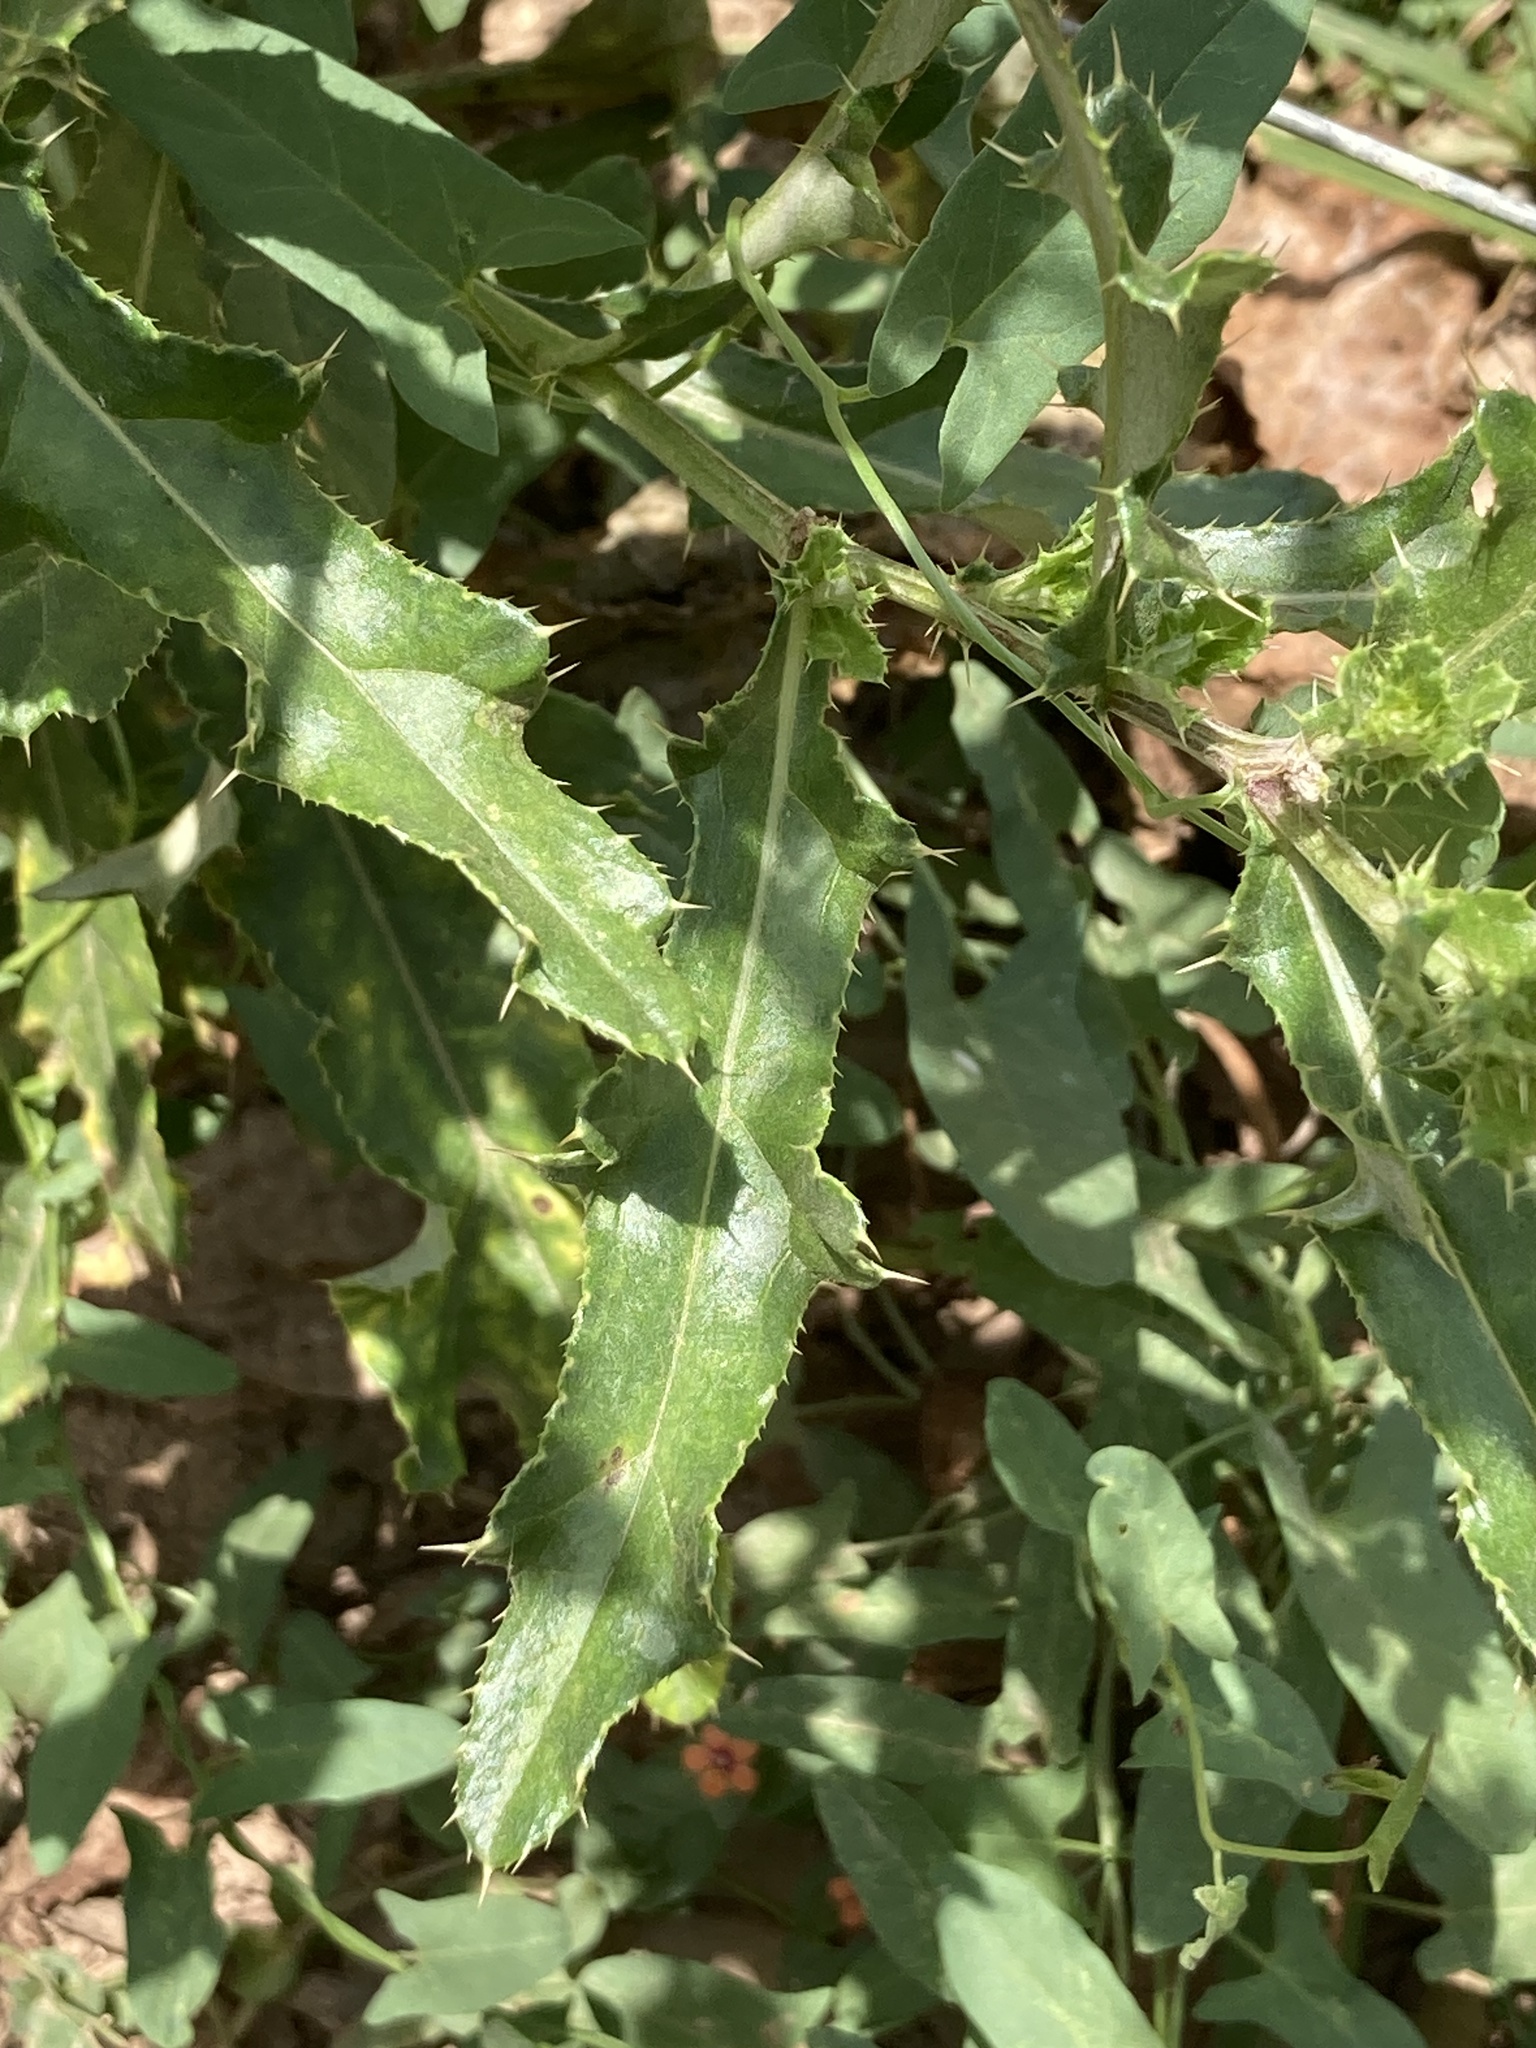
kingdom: Plantae
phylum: Tracheophyta
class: Magnoliopsida
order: Asterales
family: Asteraceae
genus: Cirsium
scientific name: Cirsium arvense
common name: Creeping thistle
